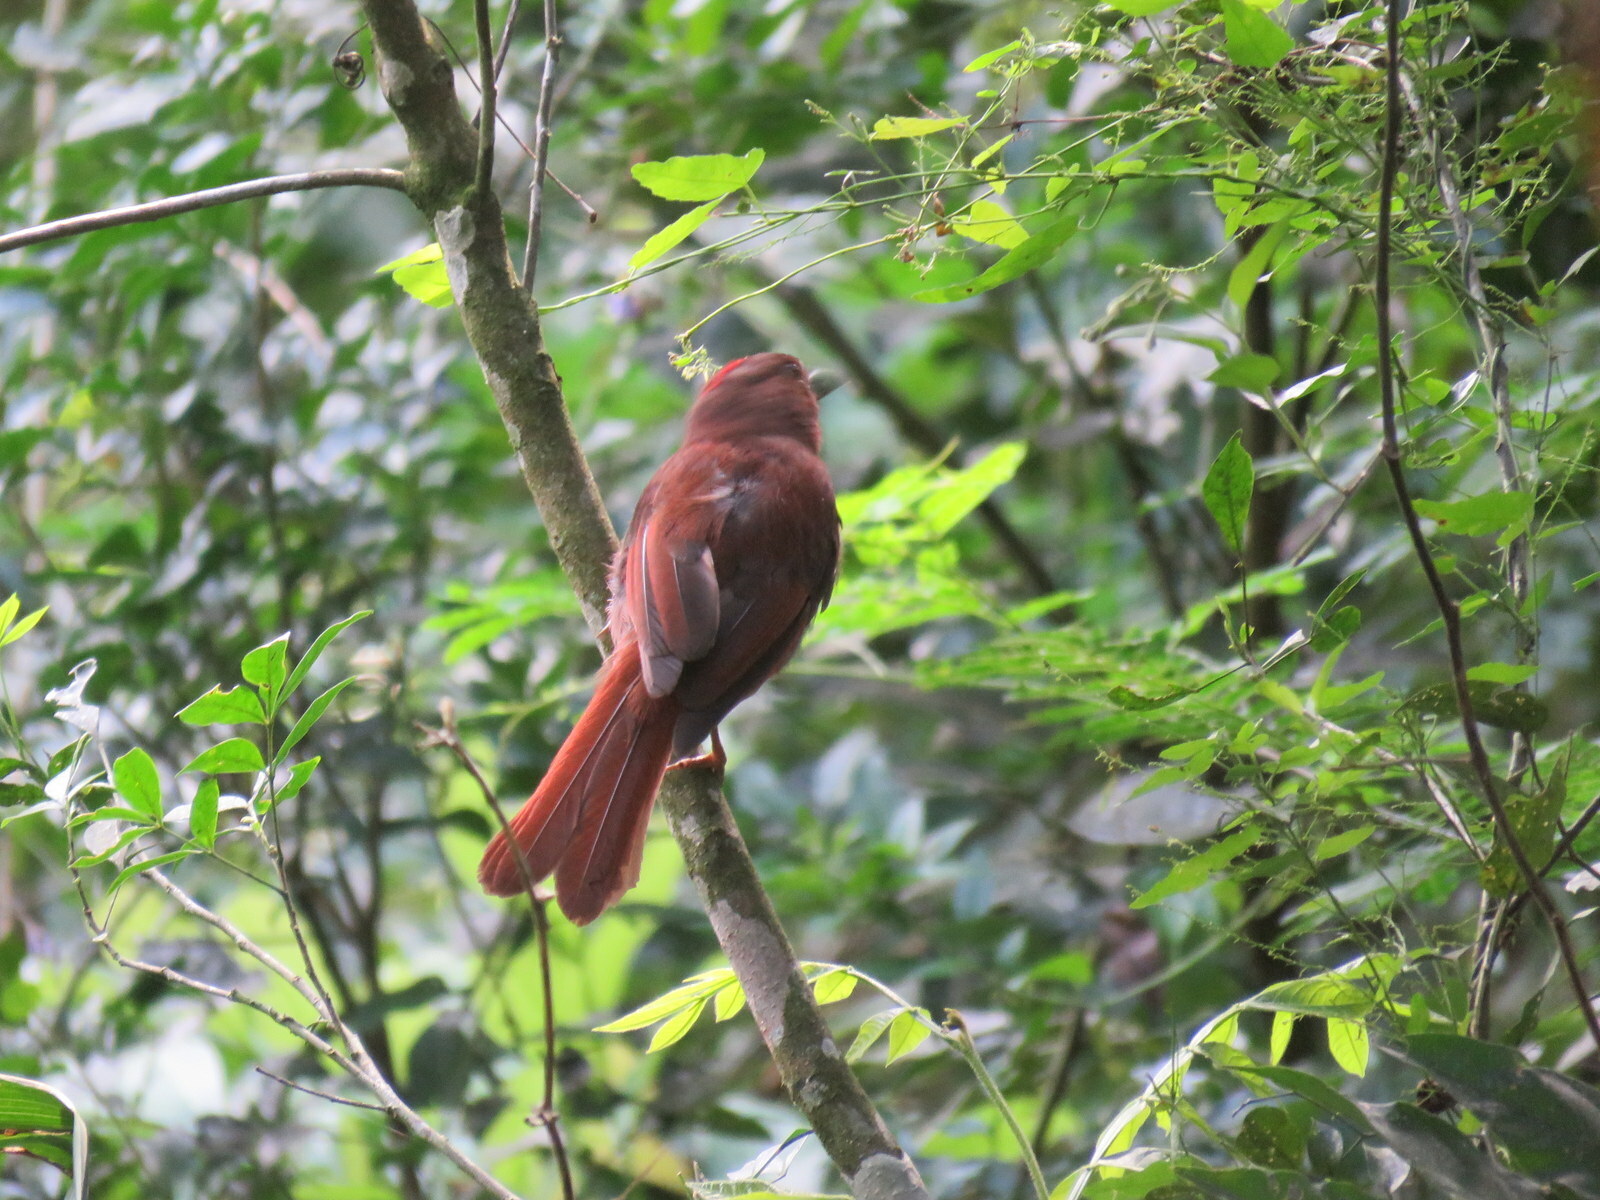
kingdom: Animalia
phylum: Chordata
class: Aves
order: Passeriformes
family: Cardinalidae
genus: Habia
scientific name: Habia rubica
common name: Red-crowned ant-tanager
